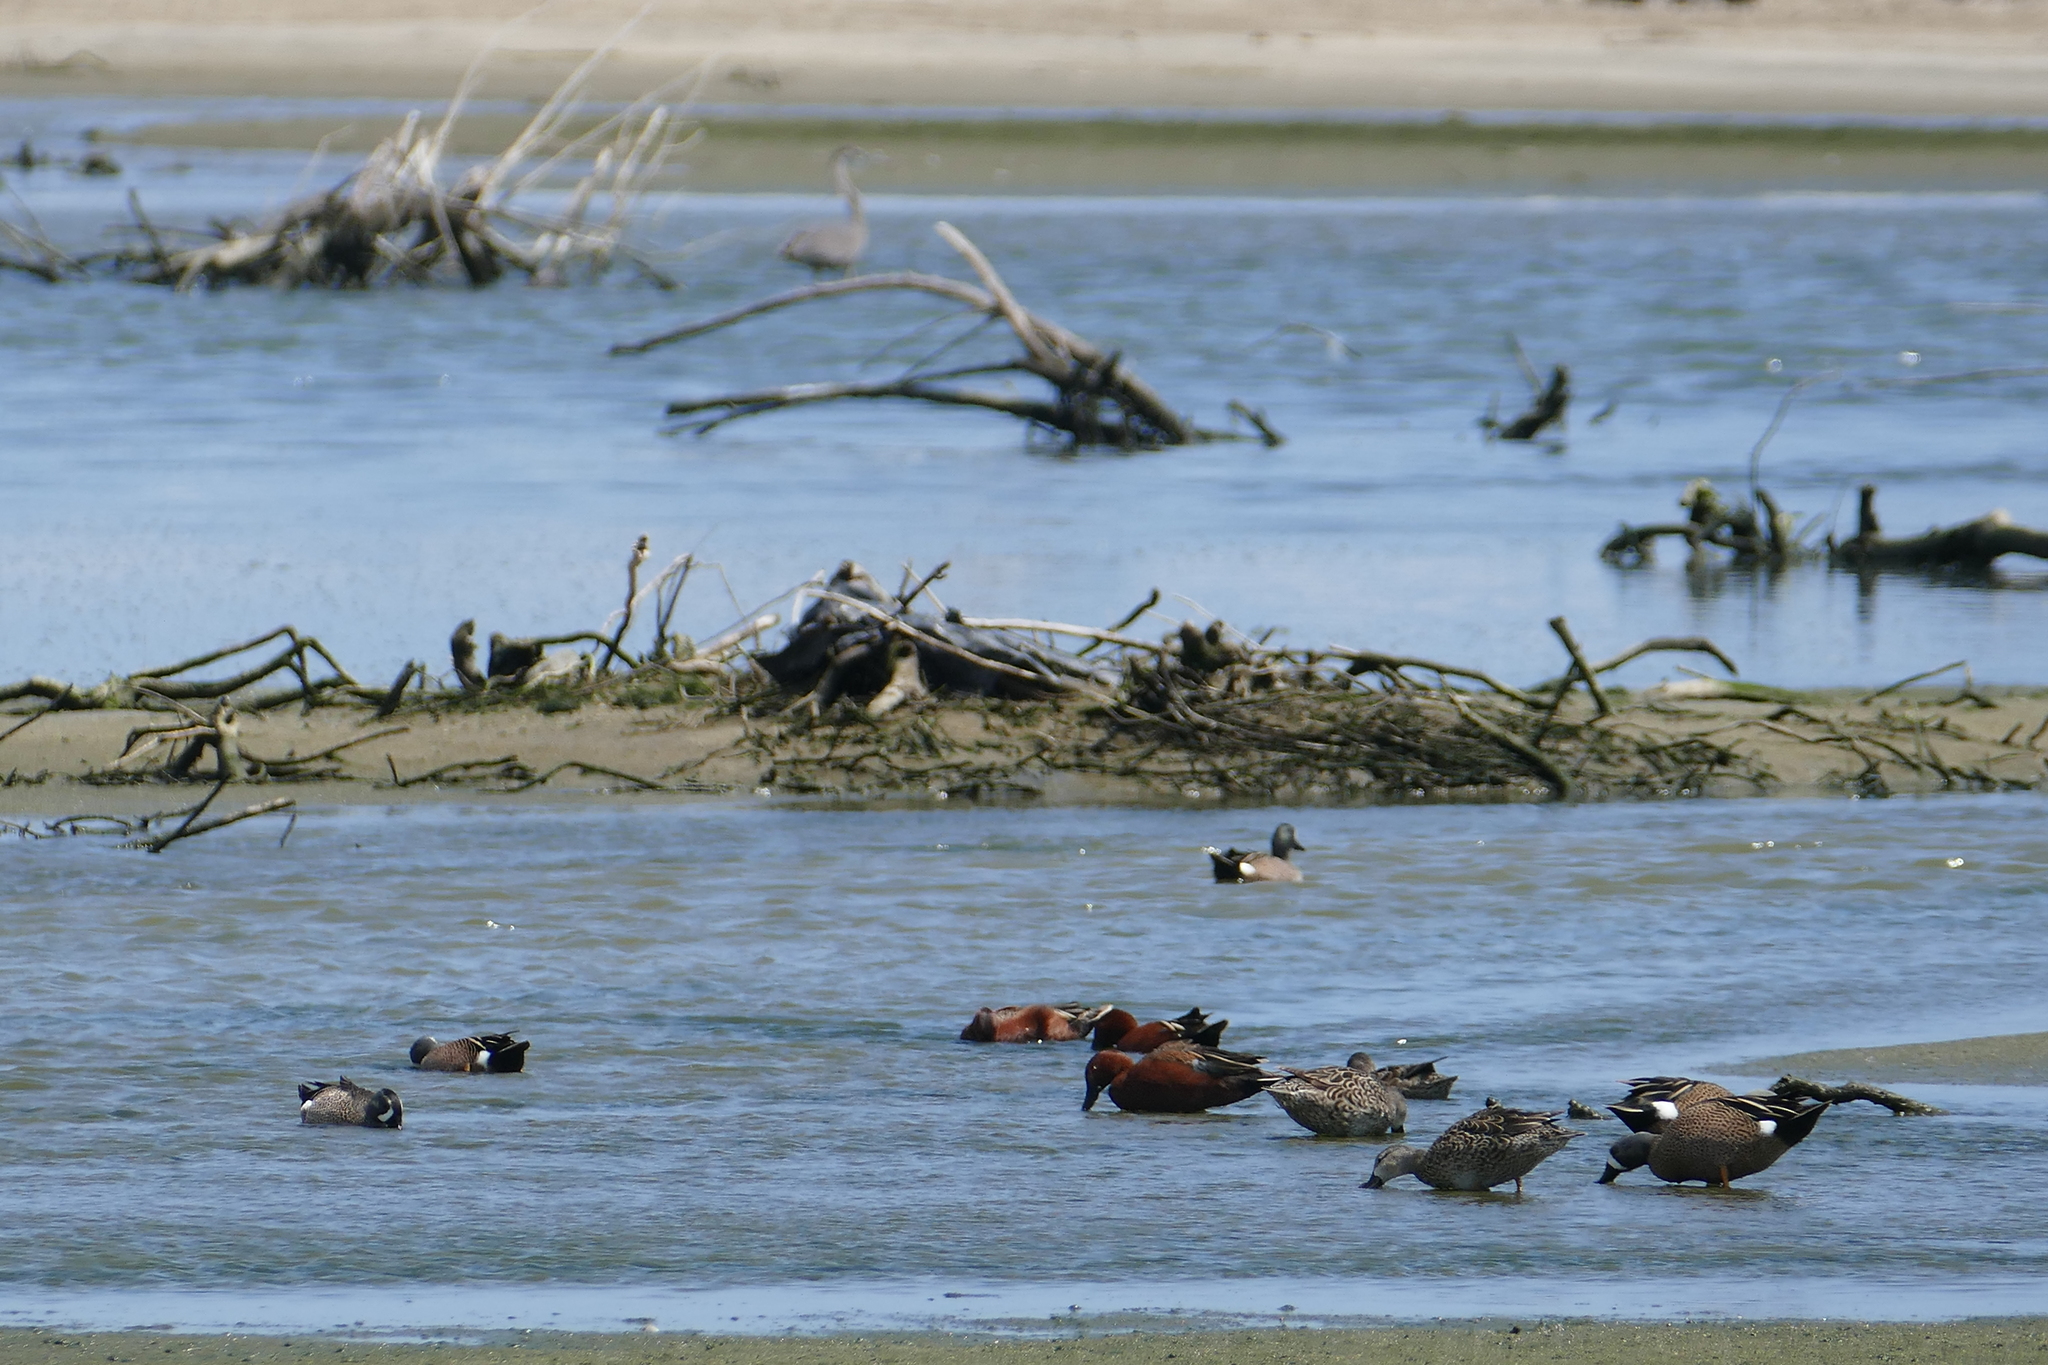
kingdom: Animalia
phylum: Chordata
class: Aves
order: Anseriformes
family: Anatidae
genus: Spatula
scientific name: Spatula discors
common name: Blue-winged teal
